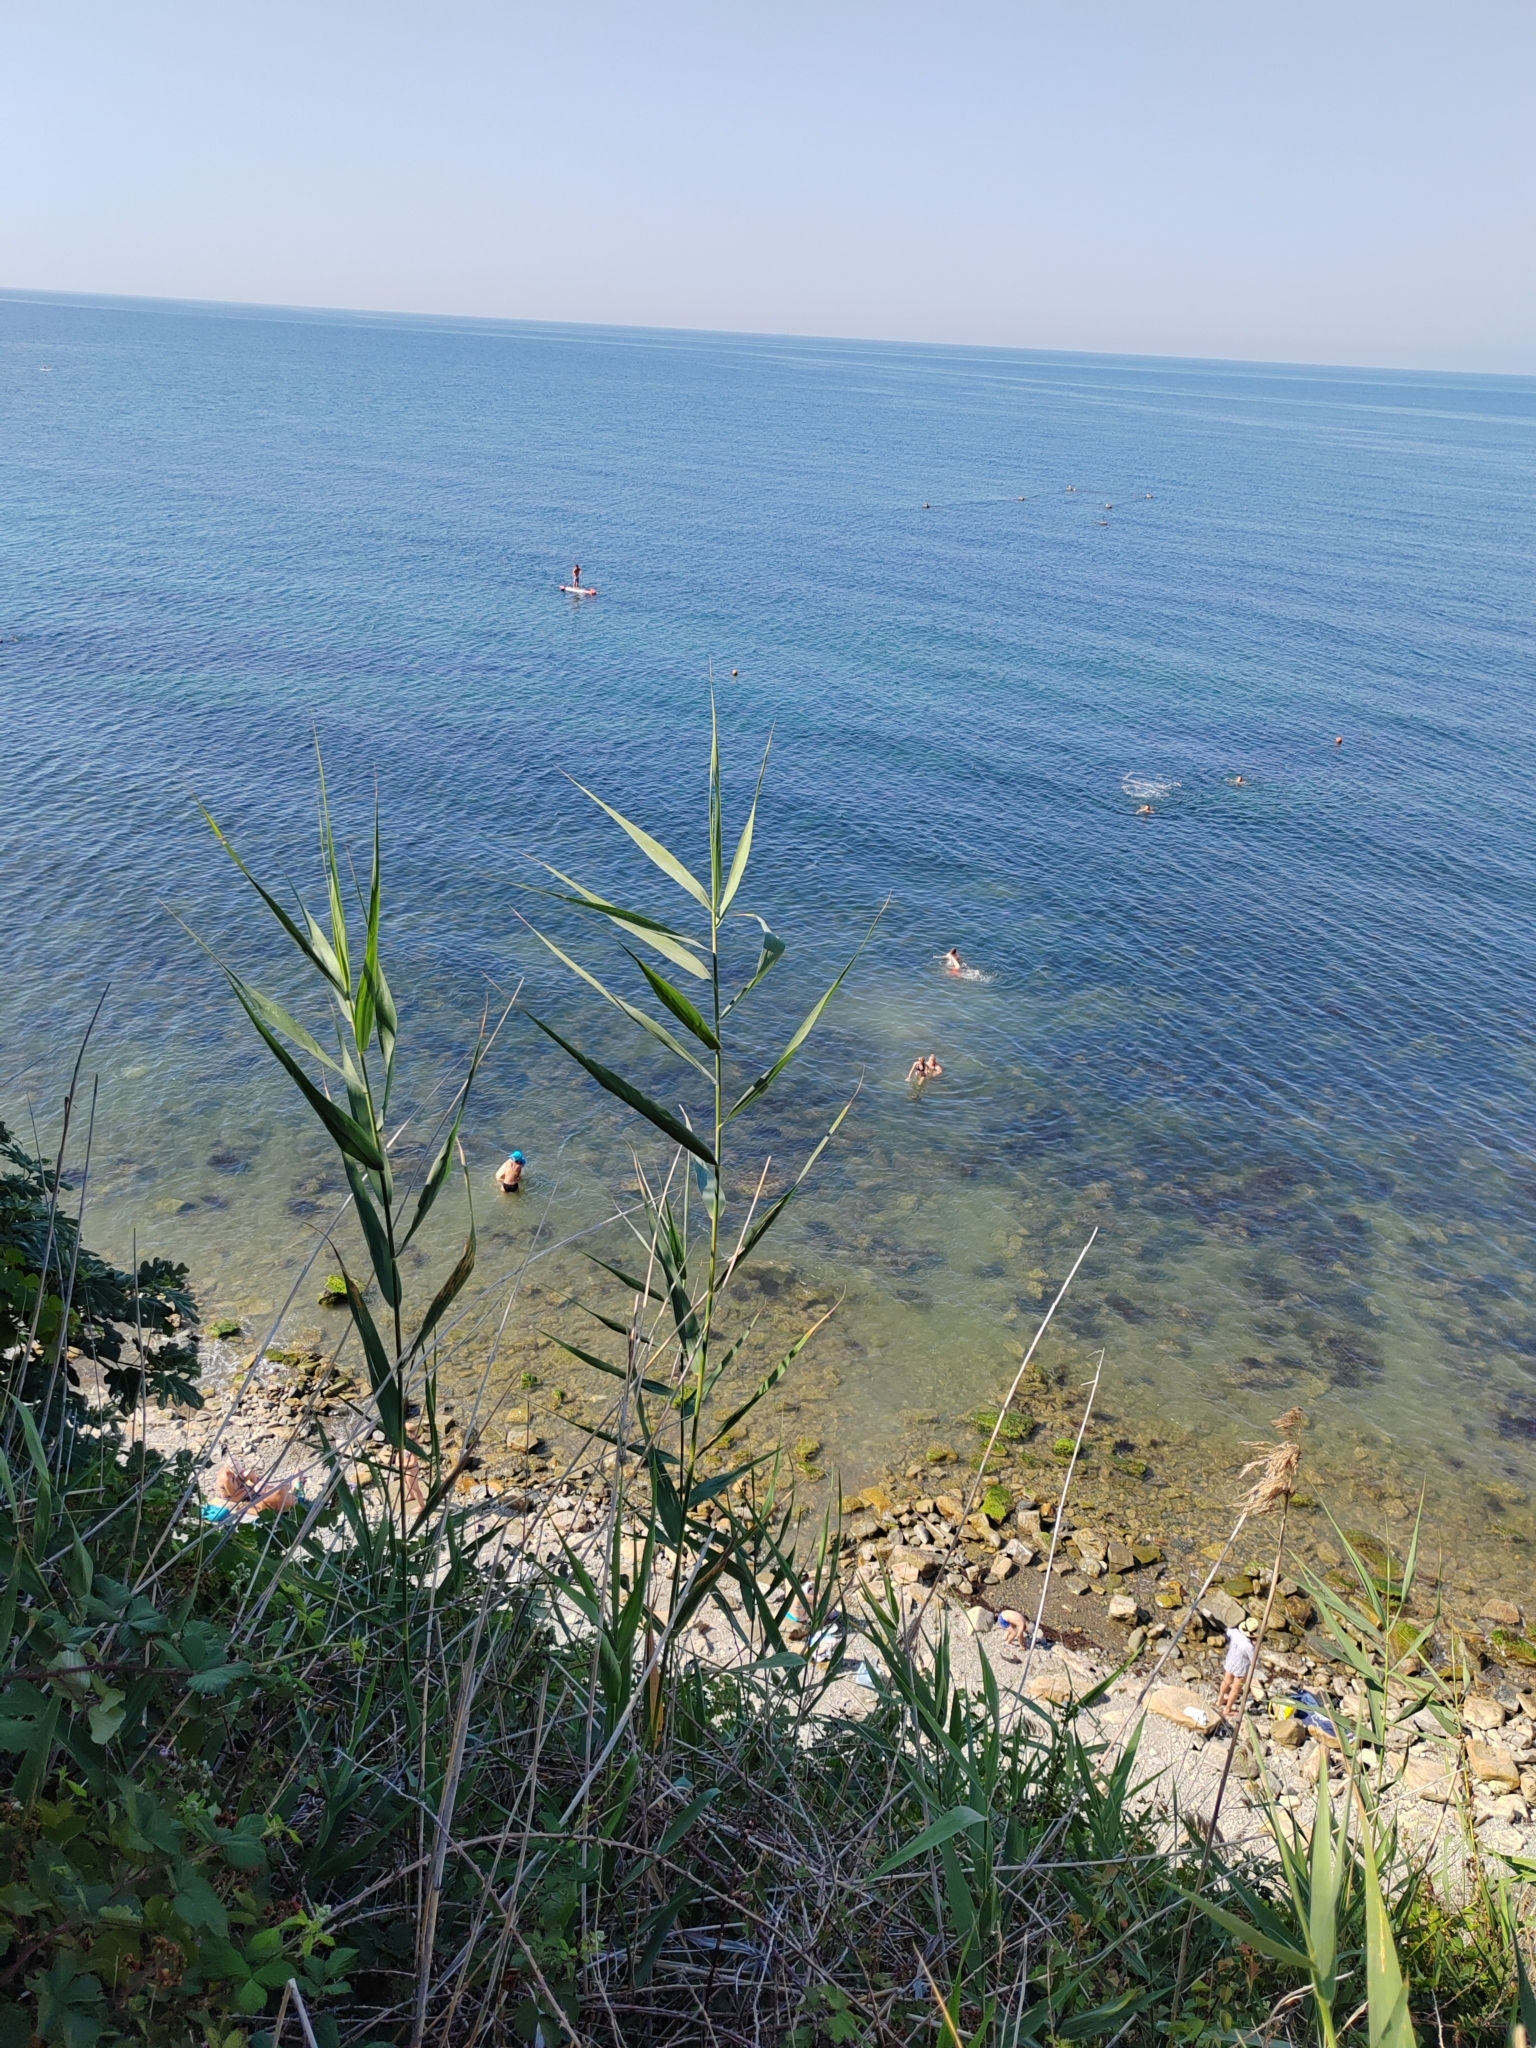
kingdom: Plantae
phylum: Tracheophyta
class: Liliopsida
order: Poales
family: Poaceae
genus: Phragmites
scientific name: Phragmites australis
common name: Common reed
